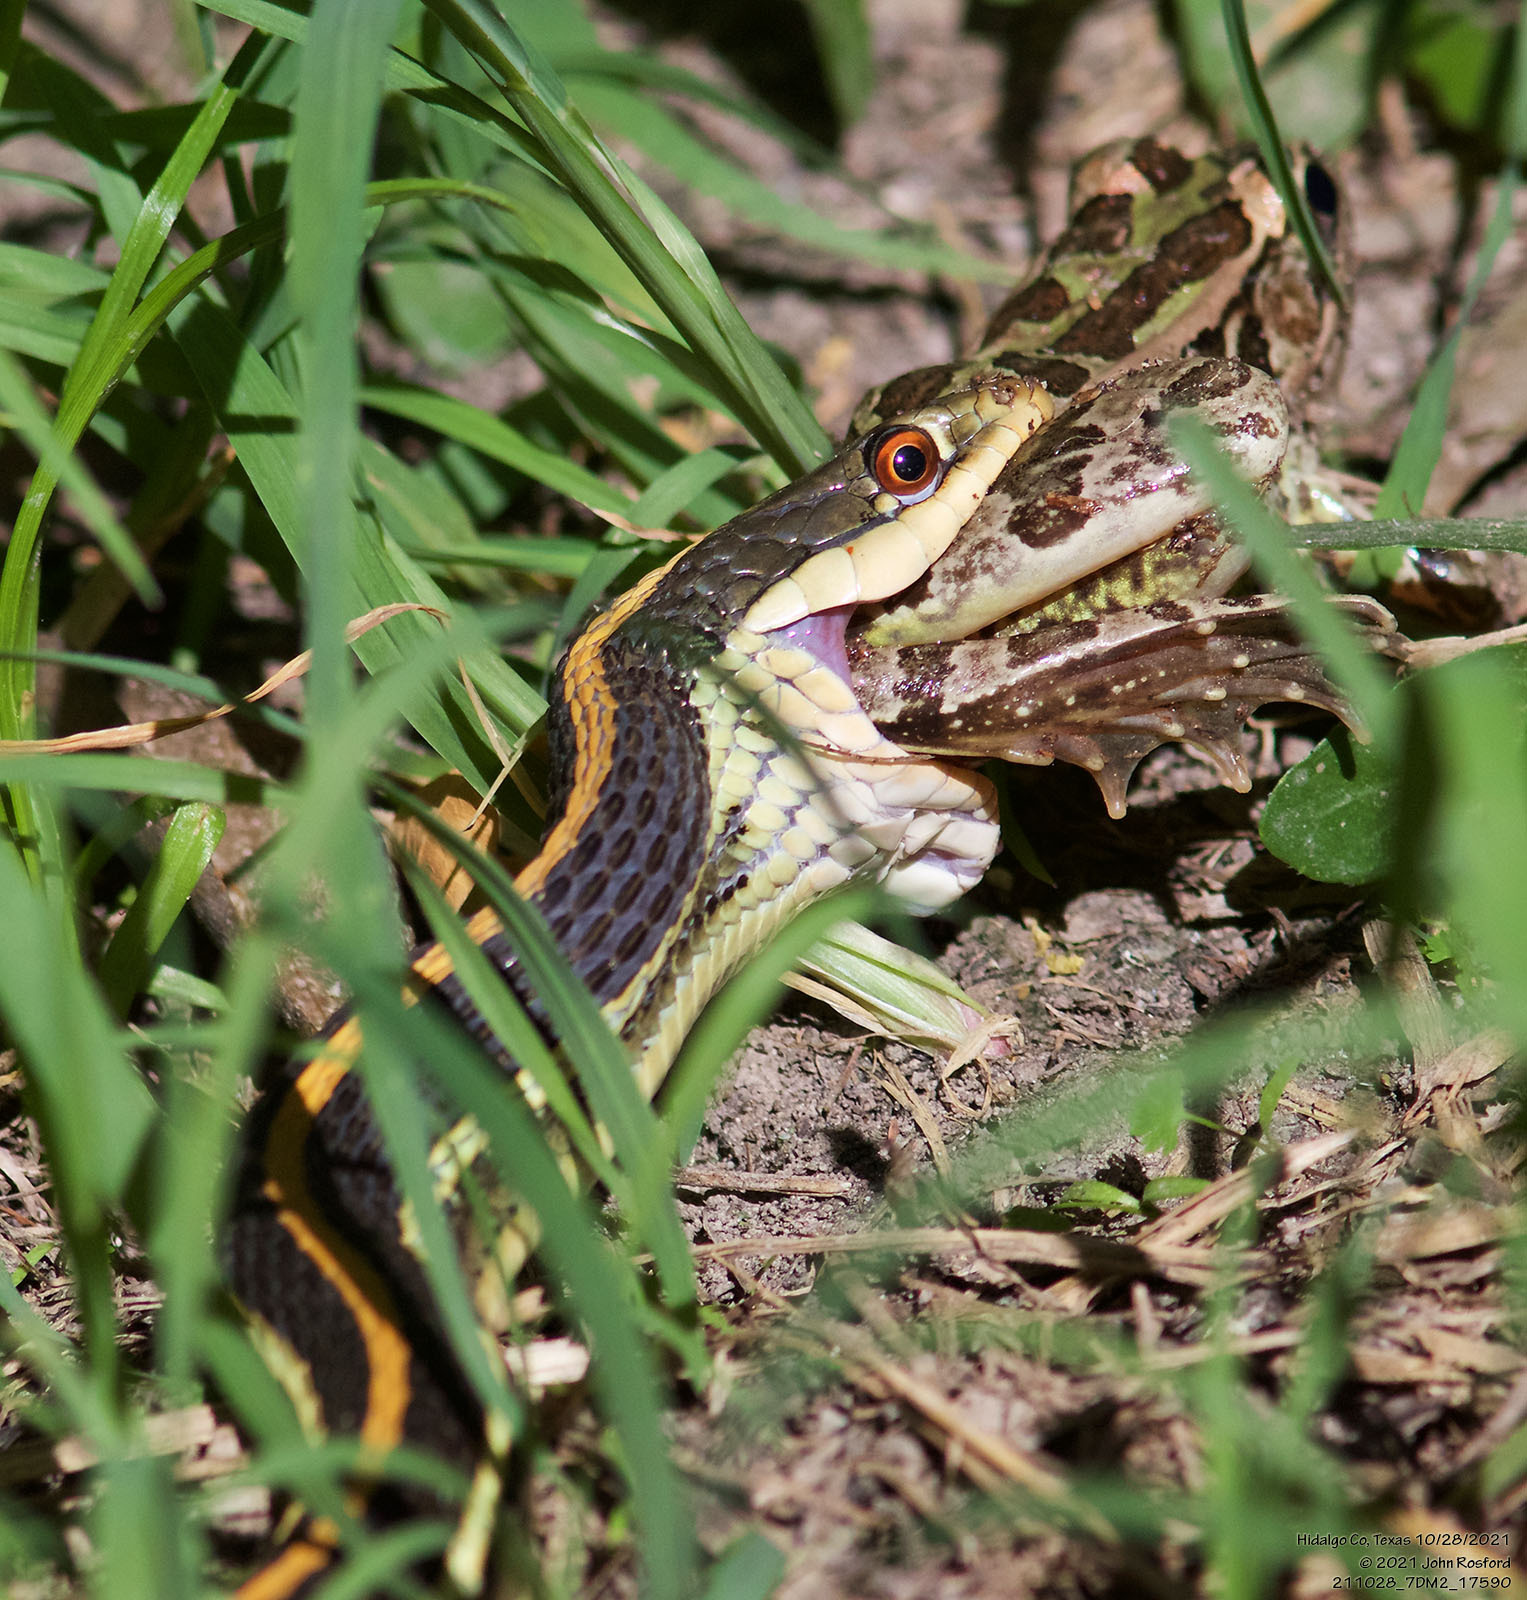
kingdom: Animalia
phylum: Chordata
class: Squamata
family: Colubridae
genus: Thamnophis
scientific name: Thamnophis proximus
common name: Western ribbon snake
